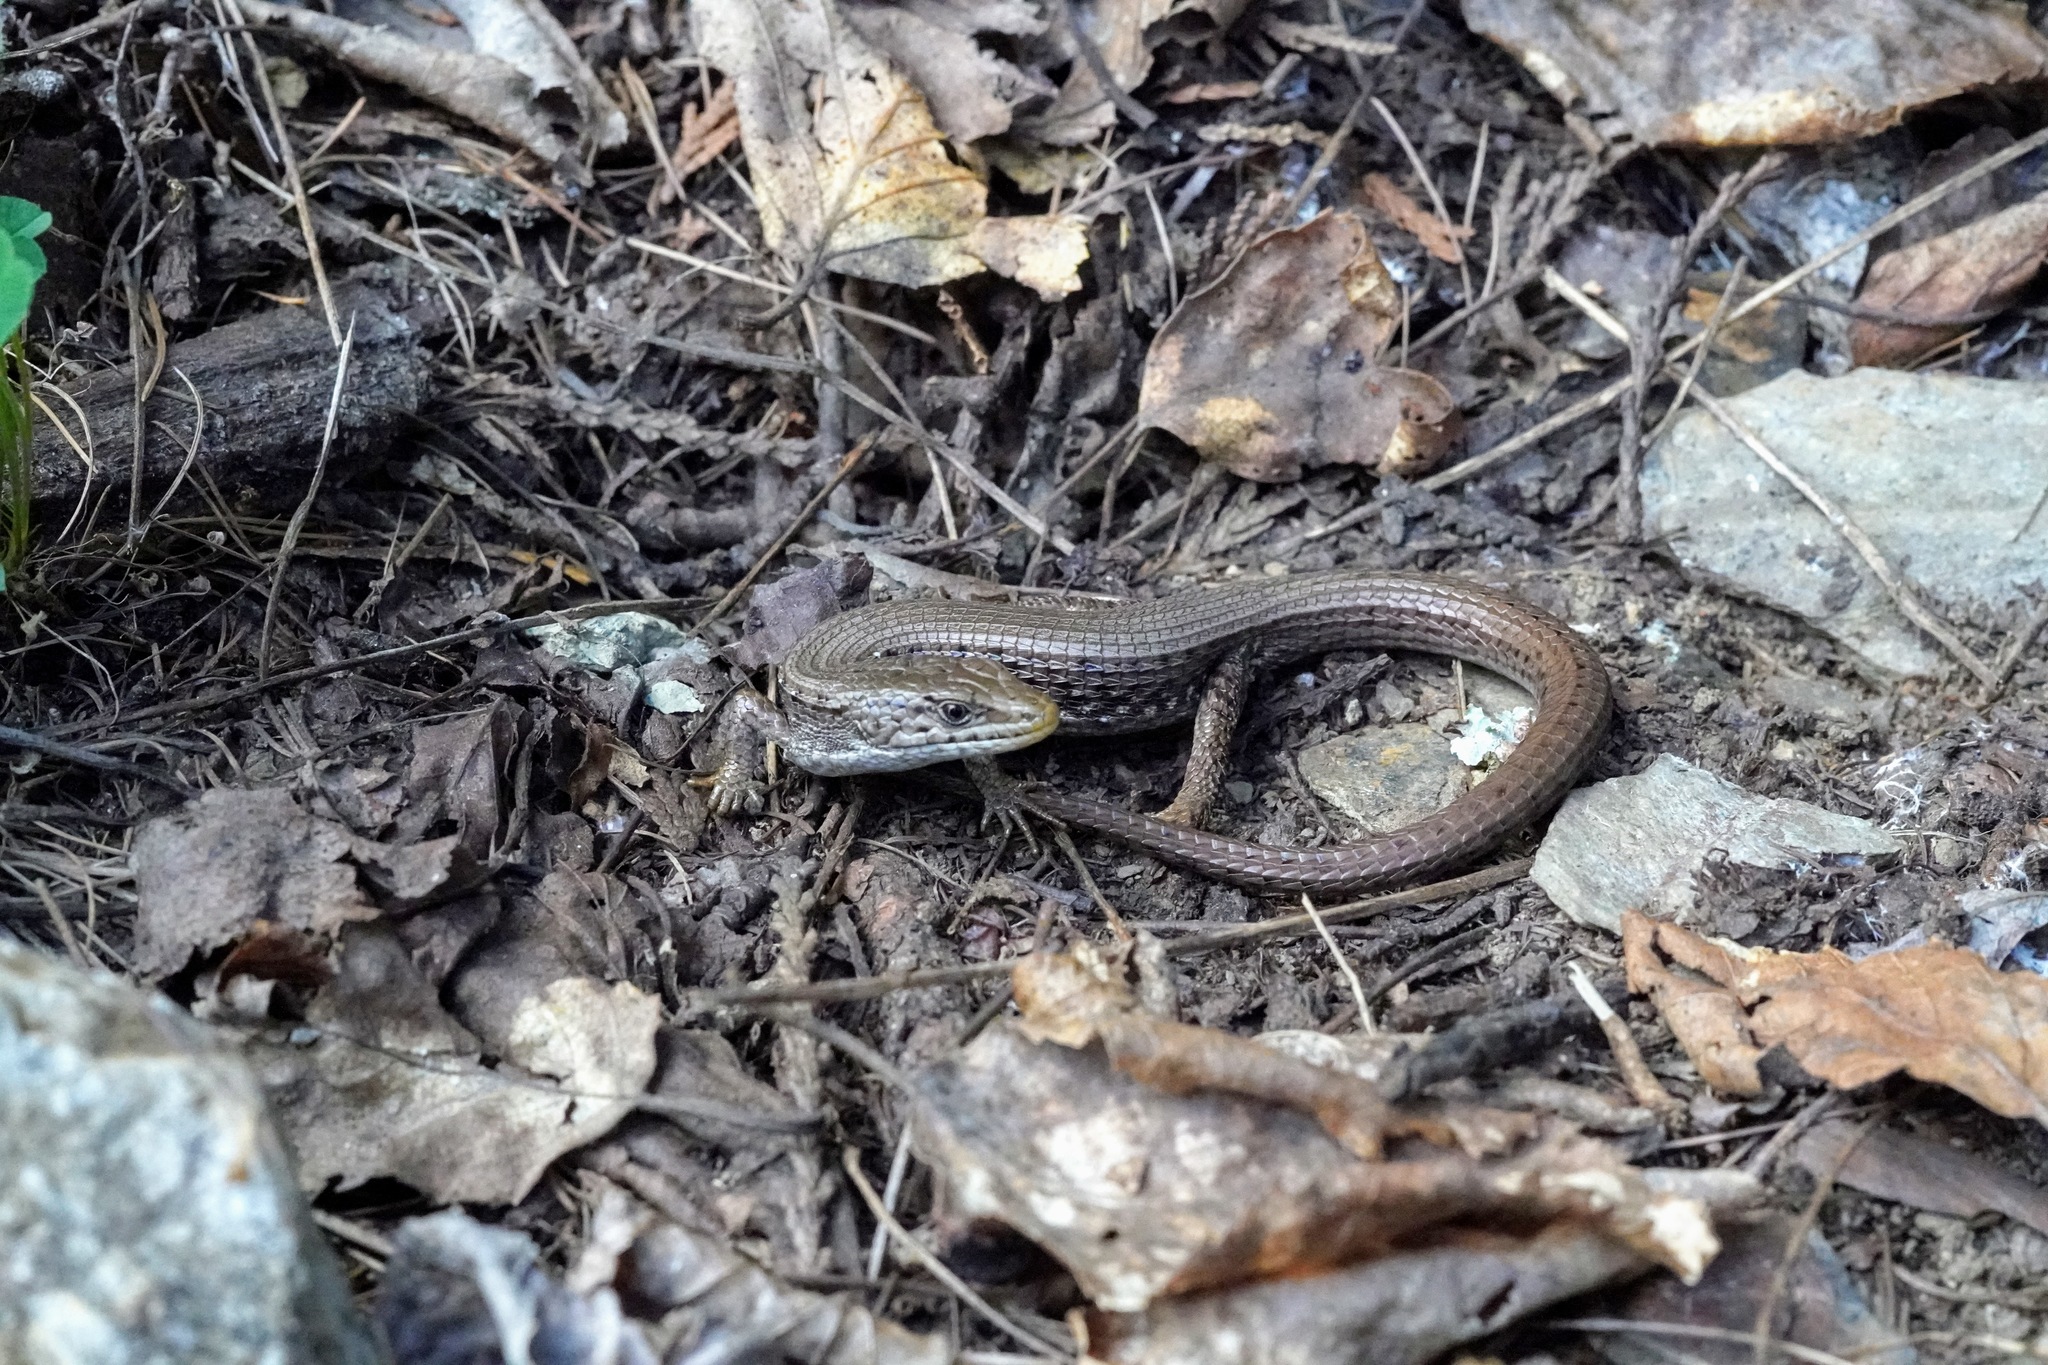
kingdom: Animalia
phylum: Chordata
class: Squamata
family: Anguidae
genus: Elgaria
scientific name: Elgaria coerulea
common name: Northern alligator lizard
